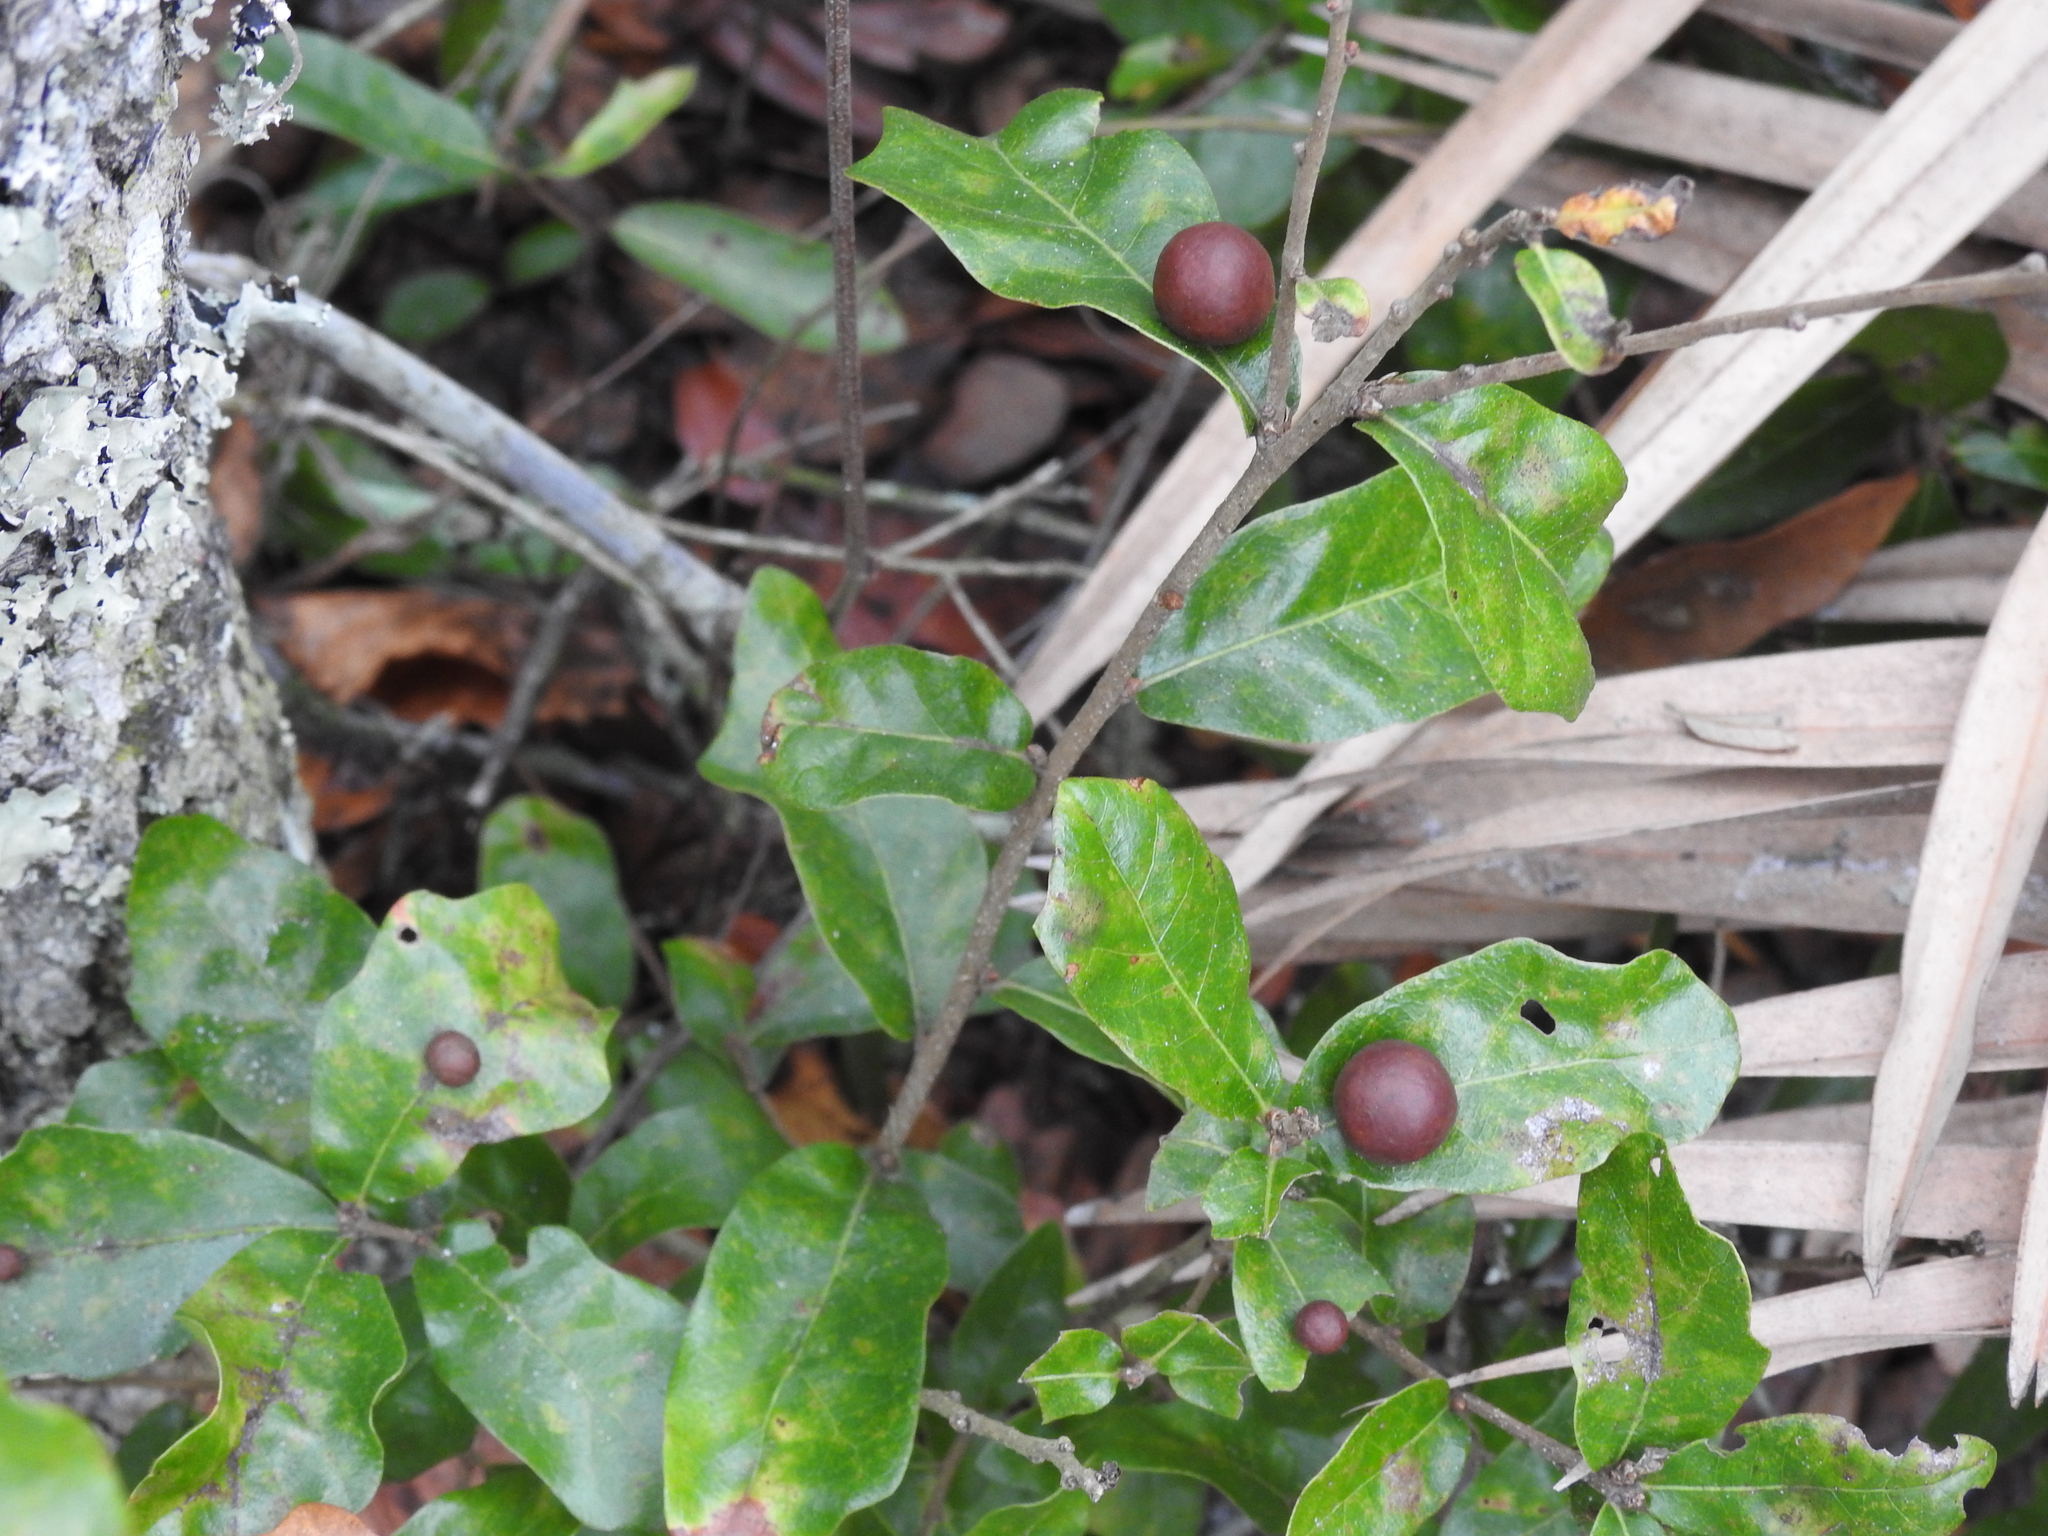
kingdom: Animalia
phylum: Arthropoda
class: Insecta
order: Hymenoptera
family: Cynipidae
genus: Trigonaspis
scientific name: Trigonaspis
